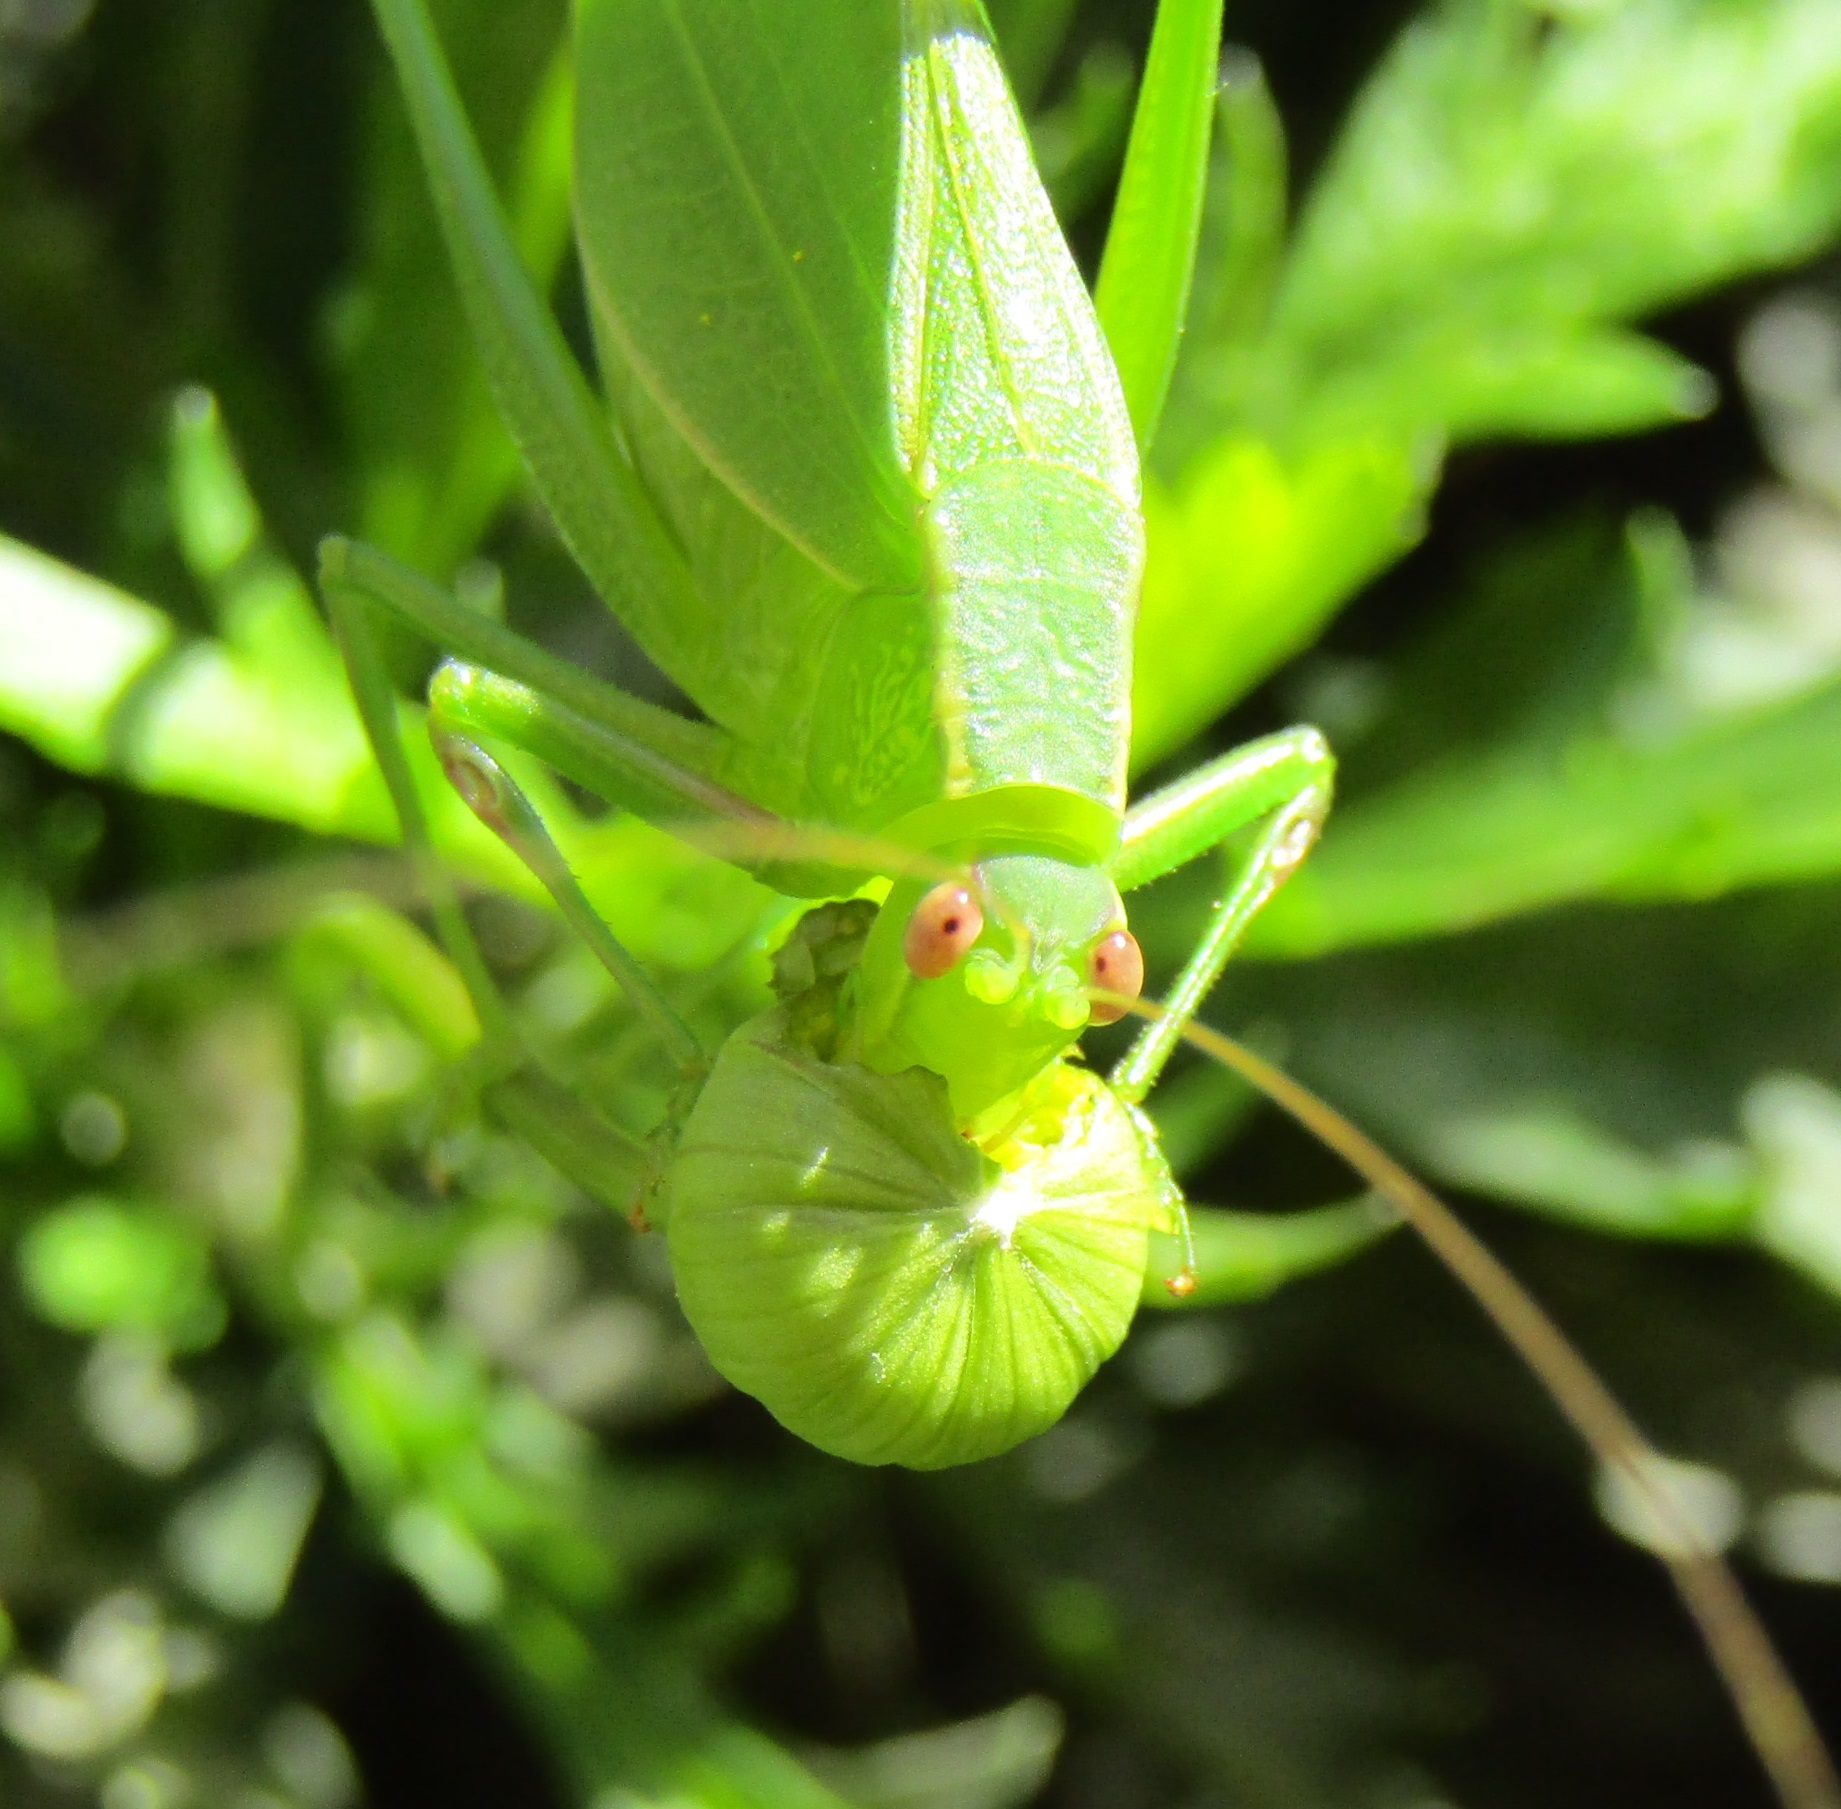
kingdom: Animalia
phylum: Arthropoda
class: Insecta
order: Orthoptera
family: Tettigoniidae
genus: Caedicia
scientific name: Caedicia simplex
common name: Common garden katydid
